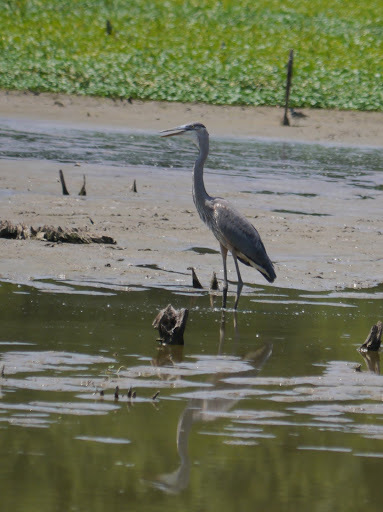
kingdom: Animalia
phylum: Chordata
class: Aves
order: Pelecaniformes
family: Ardeidae
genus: Ardea
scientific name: Ardea herodias
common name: Great blue heron
